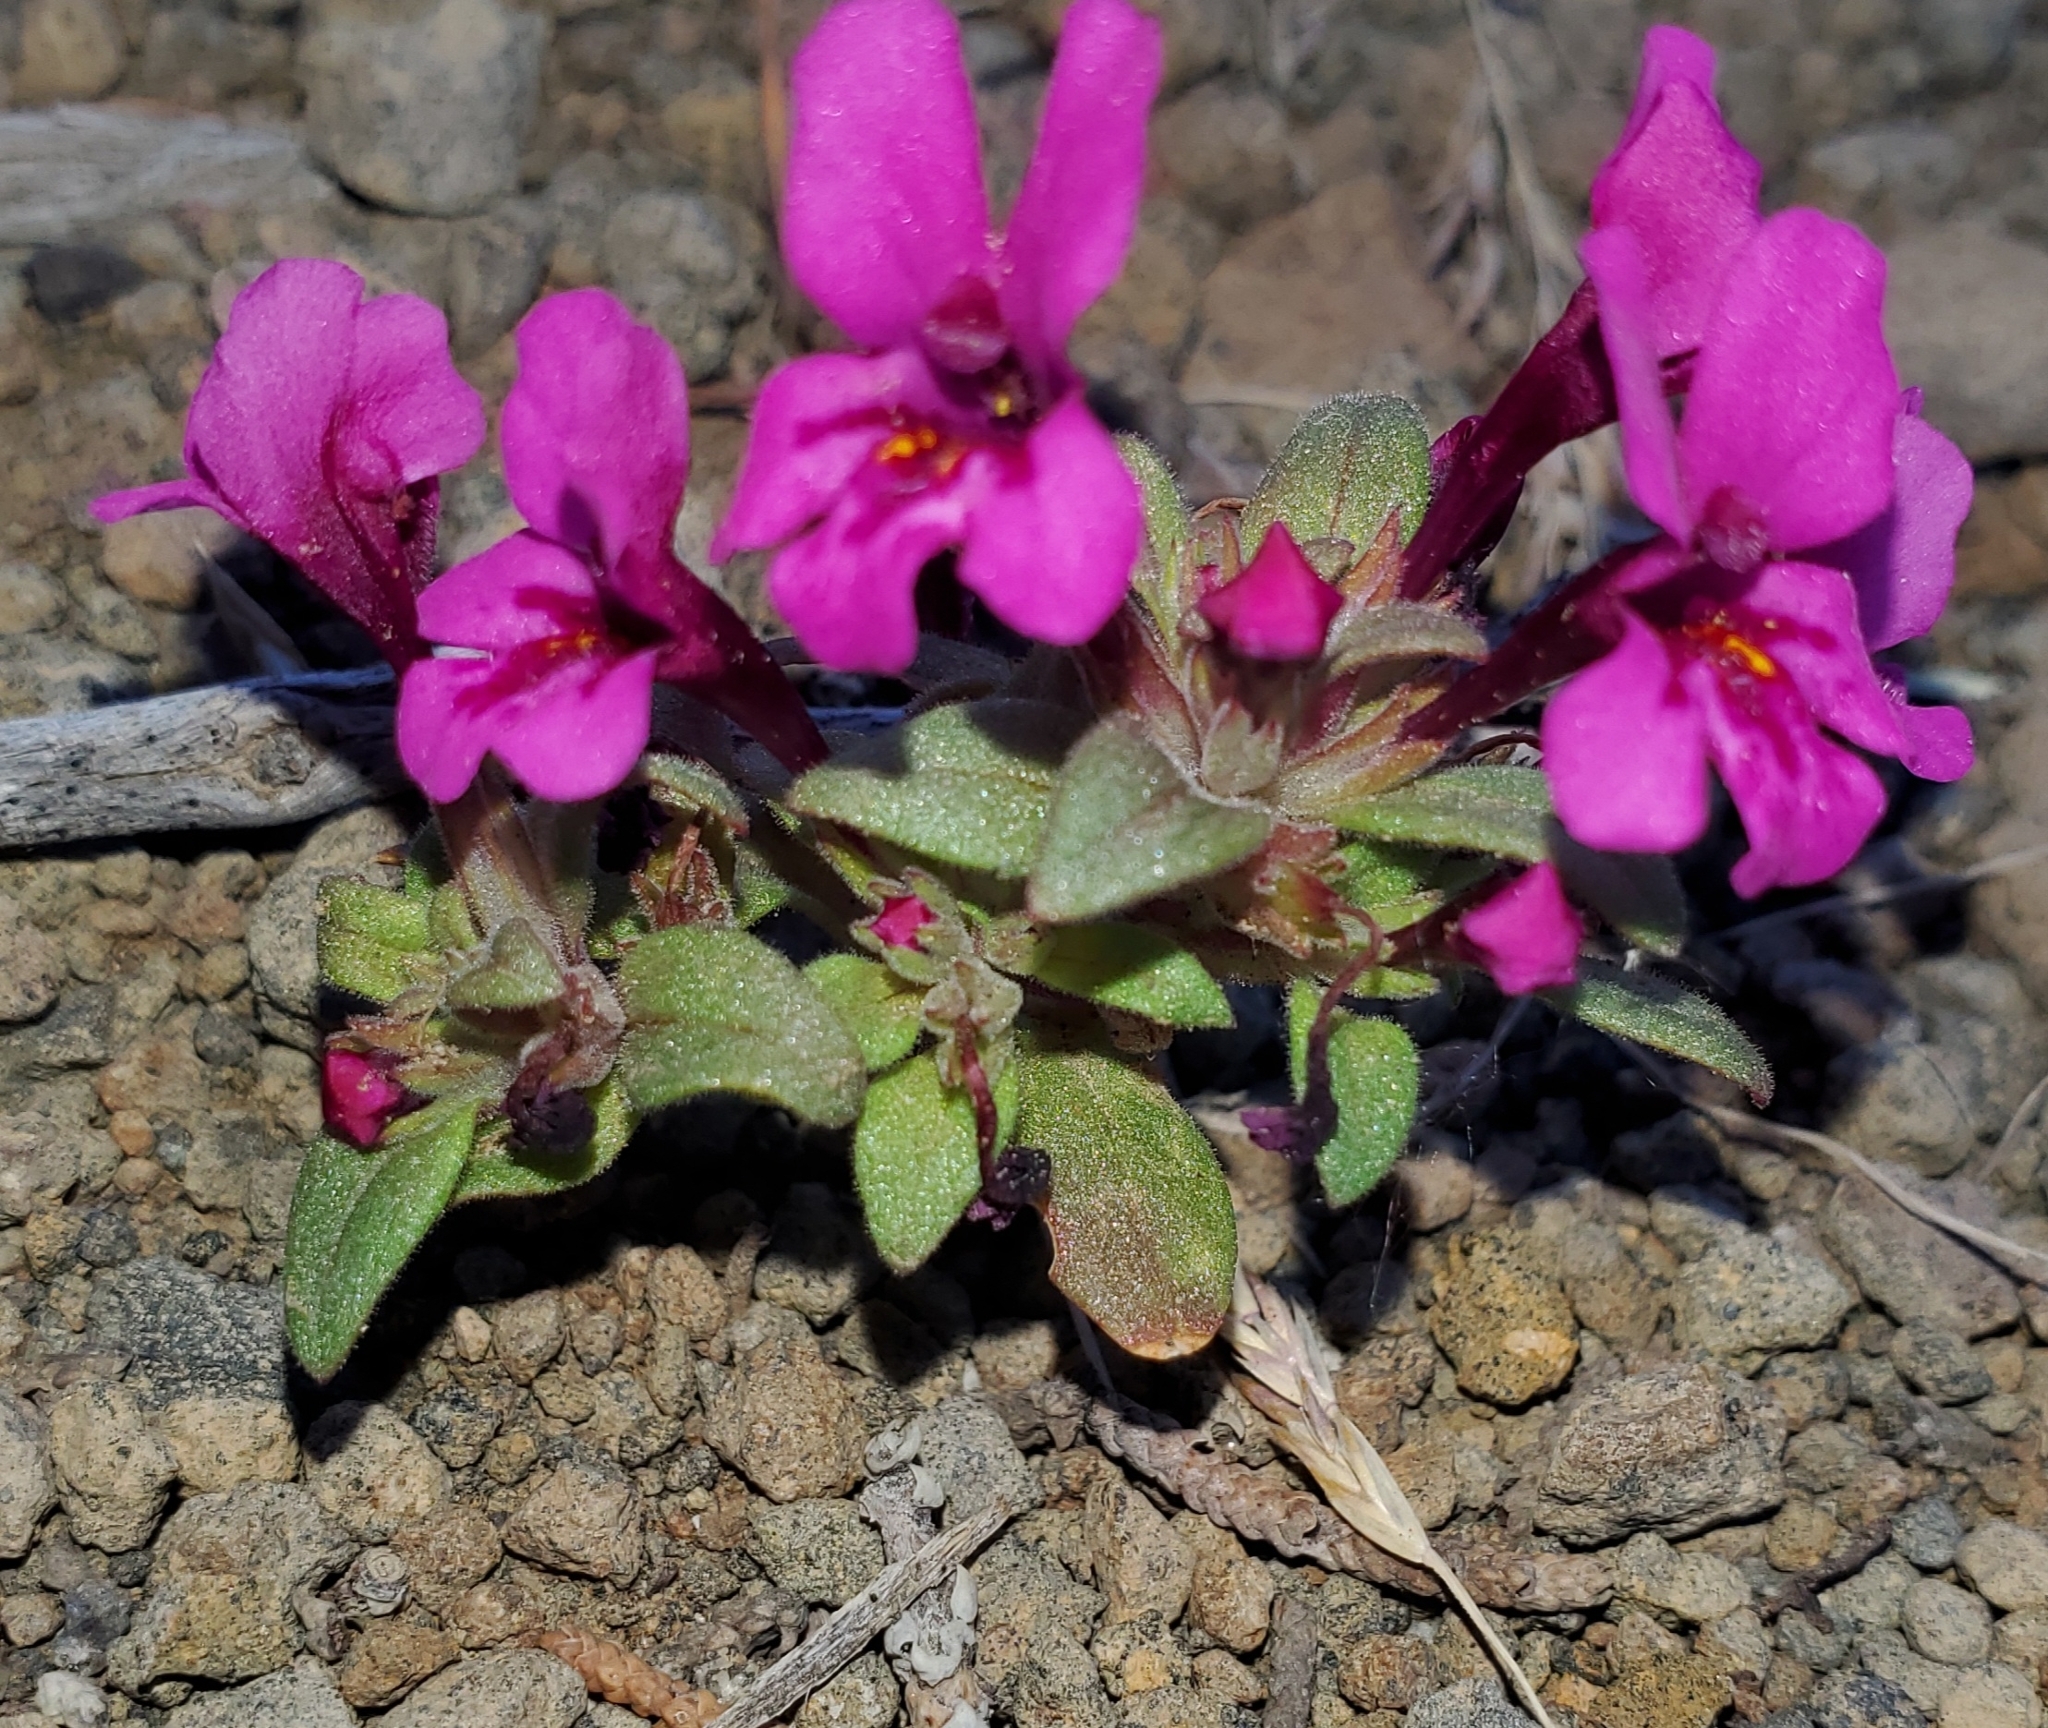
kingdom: Plantae
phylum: Tracheophyta
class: Magnoliopsida
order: Lamiales
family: Phrymaceae
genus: Diplacus
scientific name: Diplacus nanus
